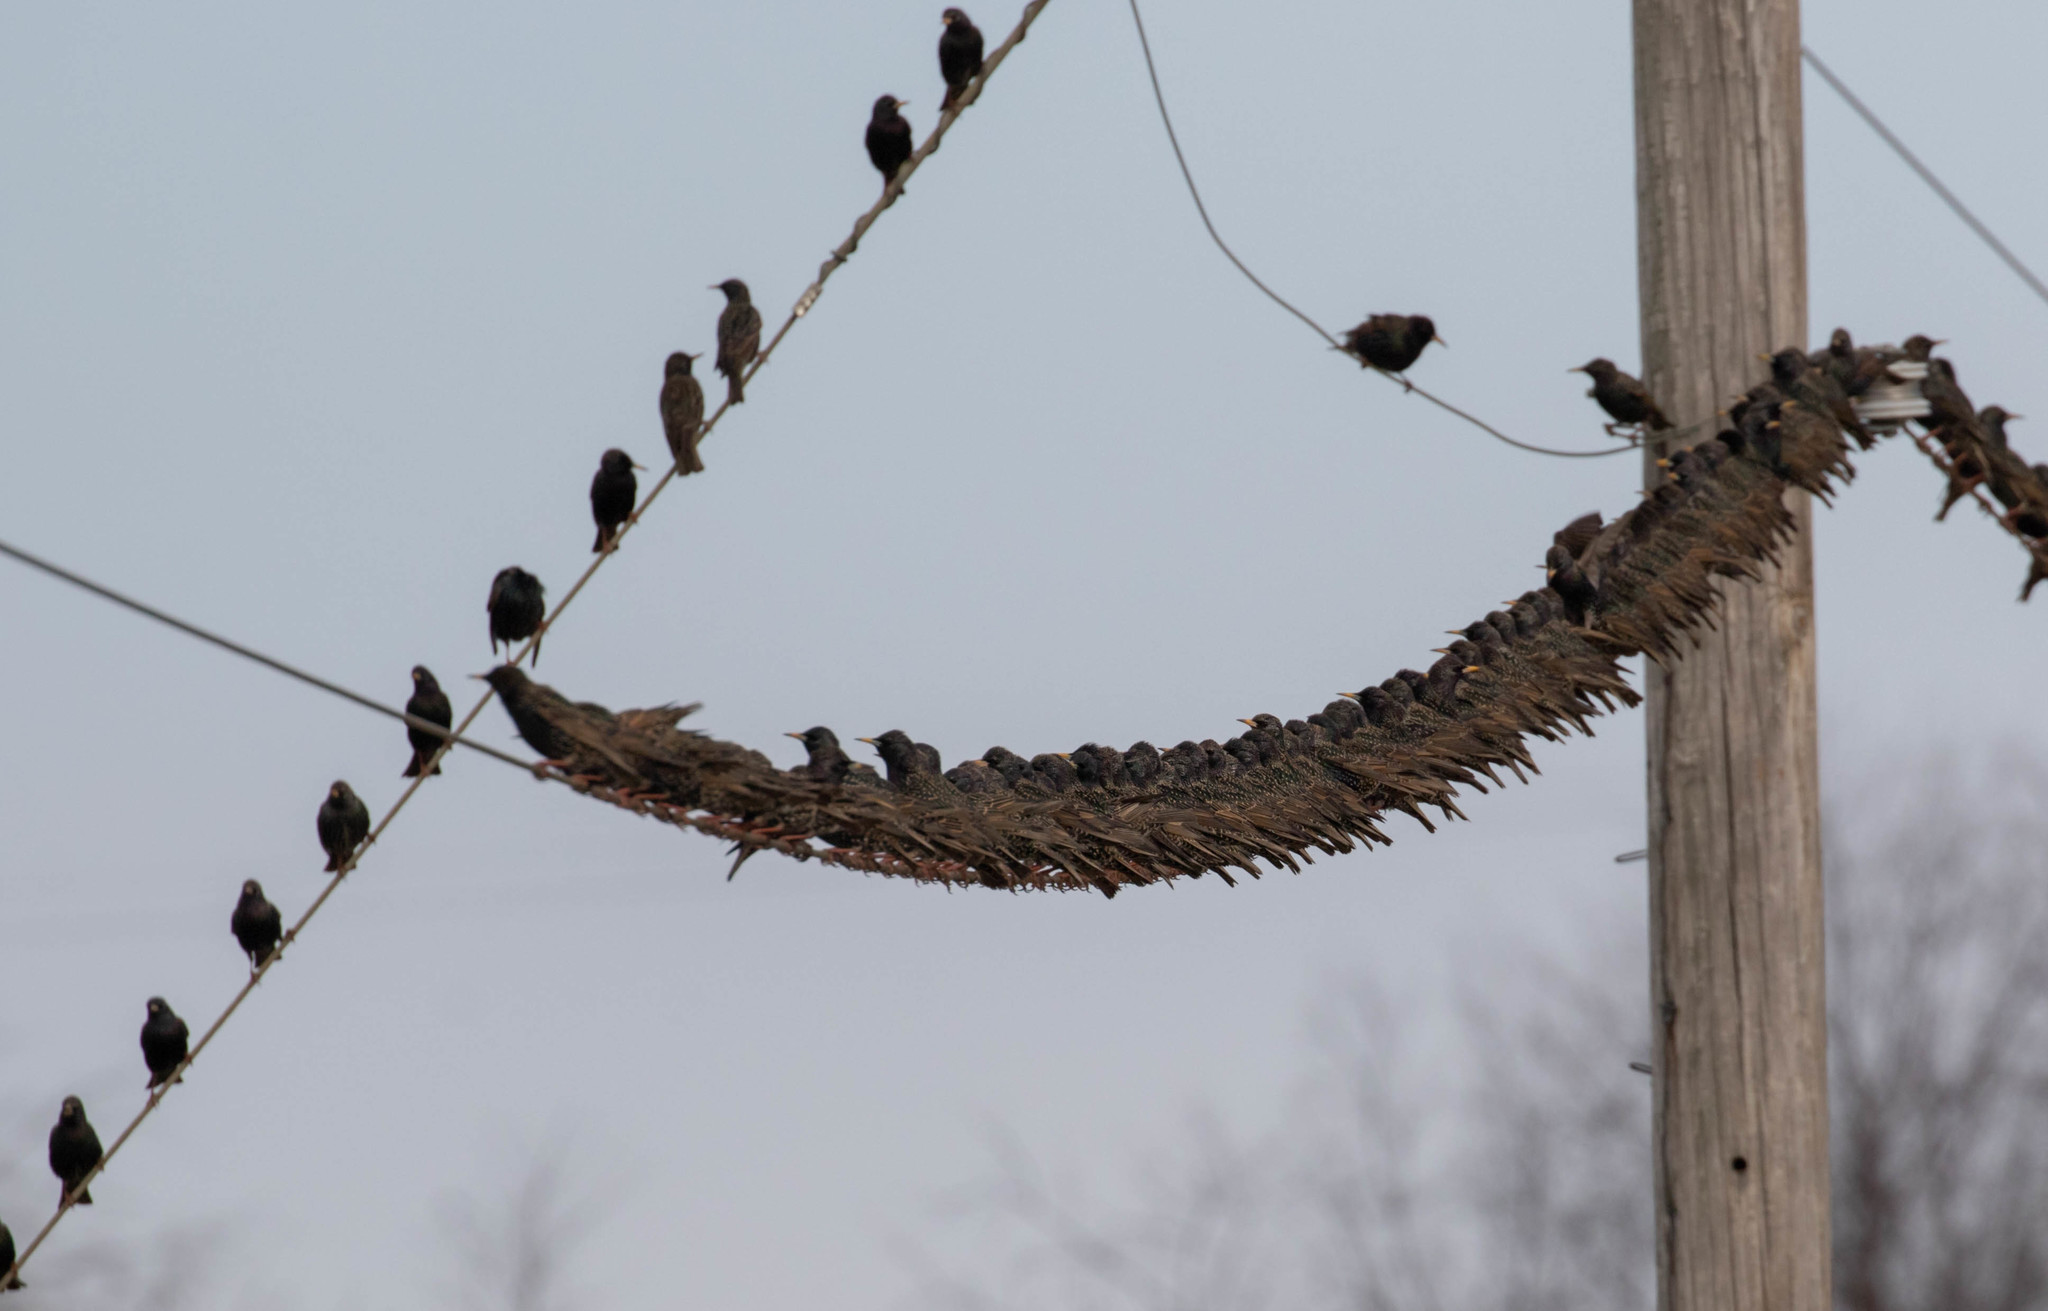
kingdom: Animalia
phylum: Chordata
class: Aves
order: Passeriformes
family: Sturnidae
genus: Sturnus
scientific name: Sturnus vulgaris
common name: Common starling
